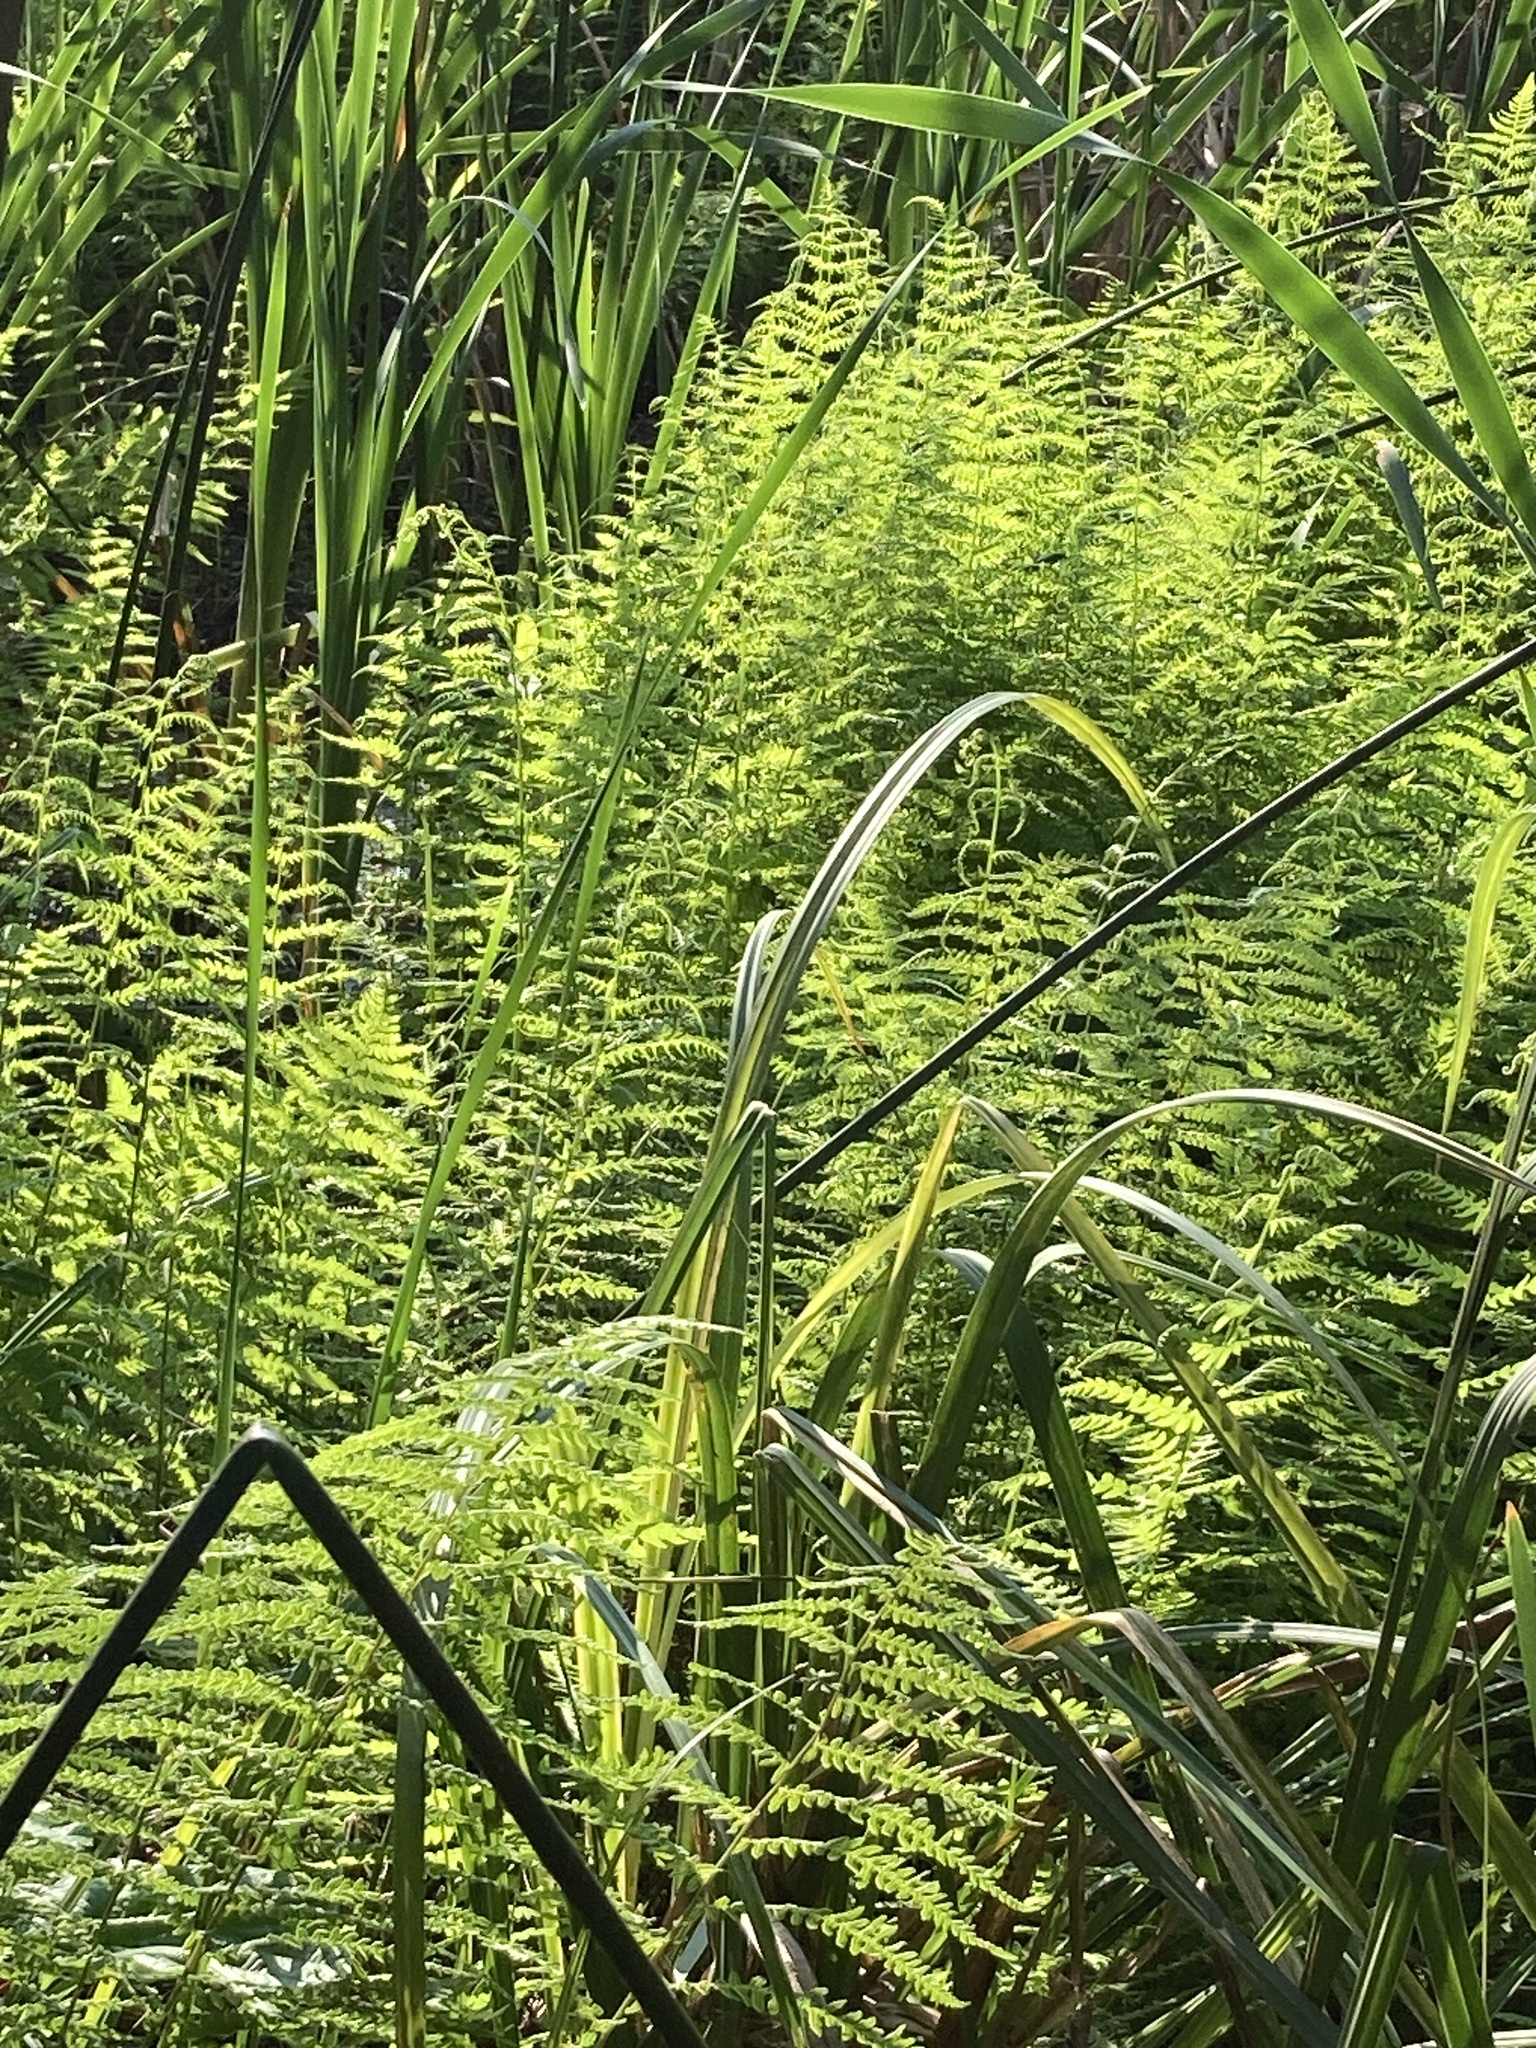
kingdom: Plantae
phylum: Tracheophyta
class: Polypodiopsida
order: Polypodiales
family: Thelypteridaceae
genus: Thelypteris
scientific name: Thelypteris palustris
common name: Marsh fern
